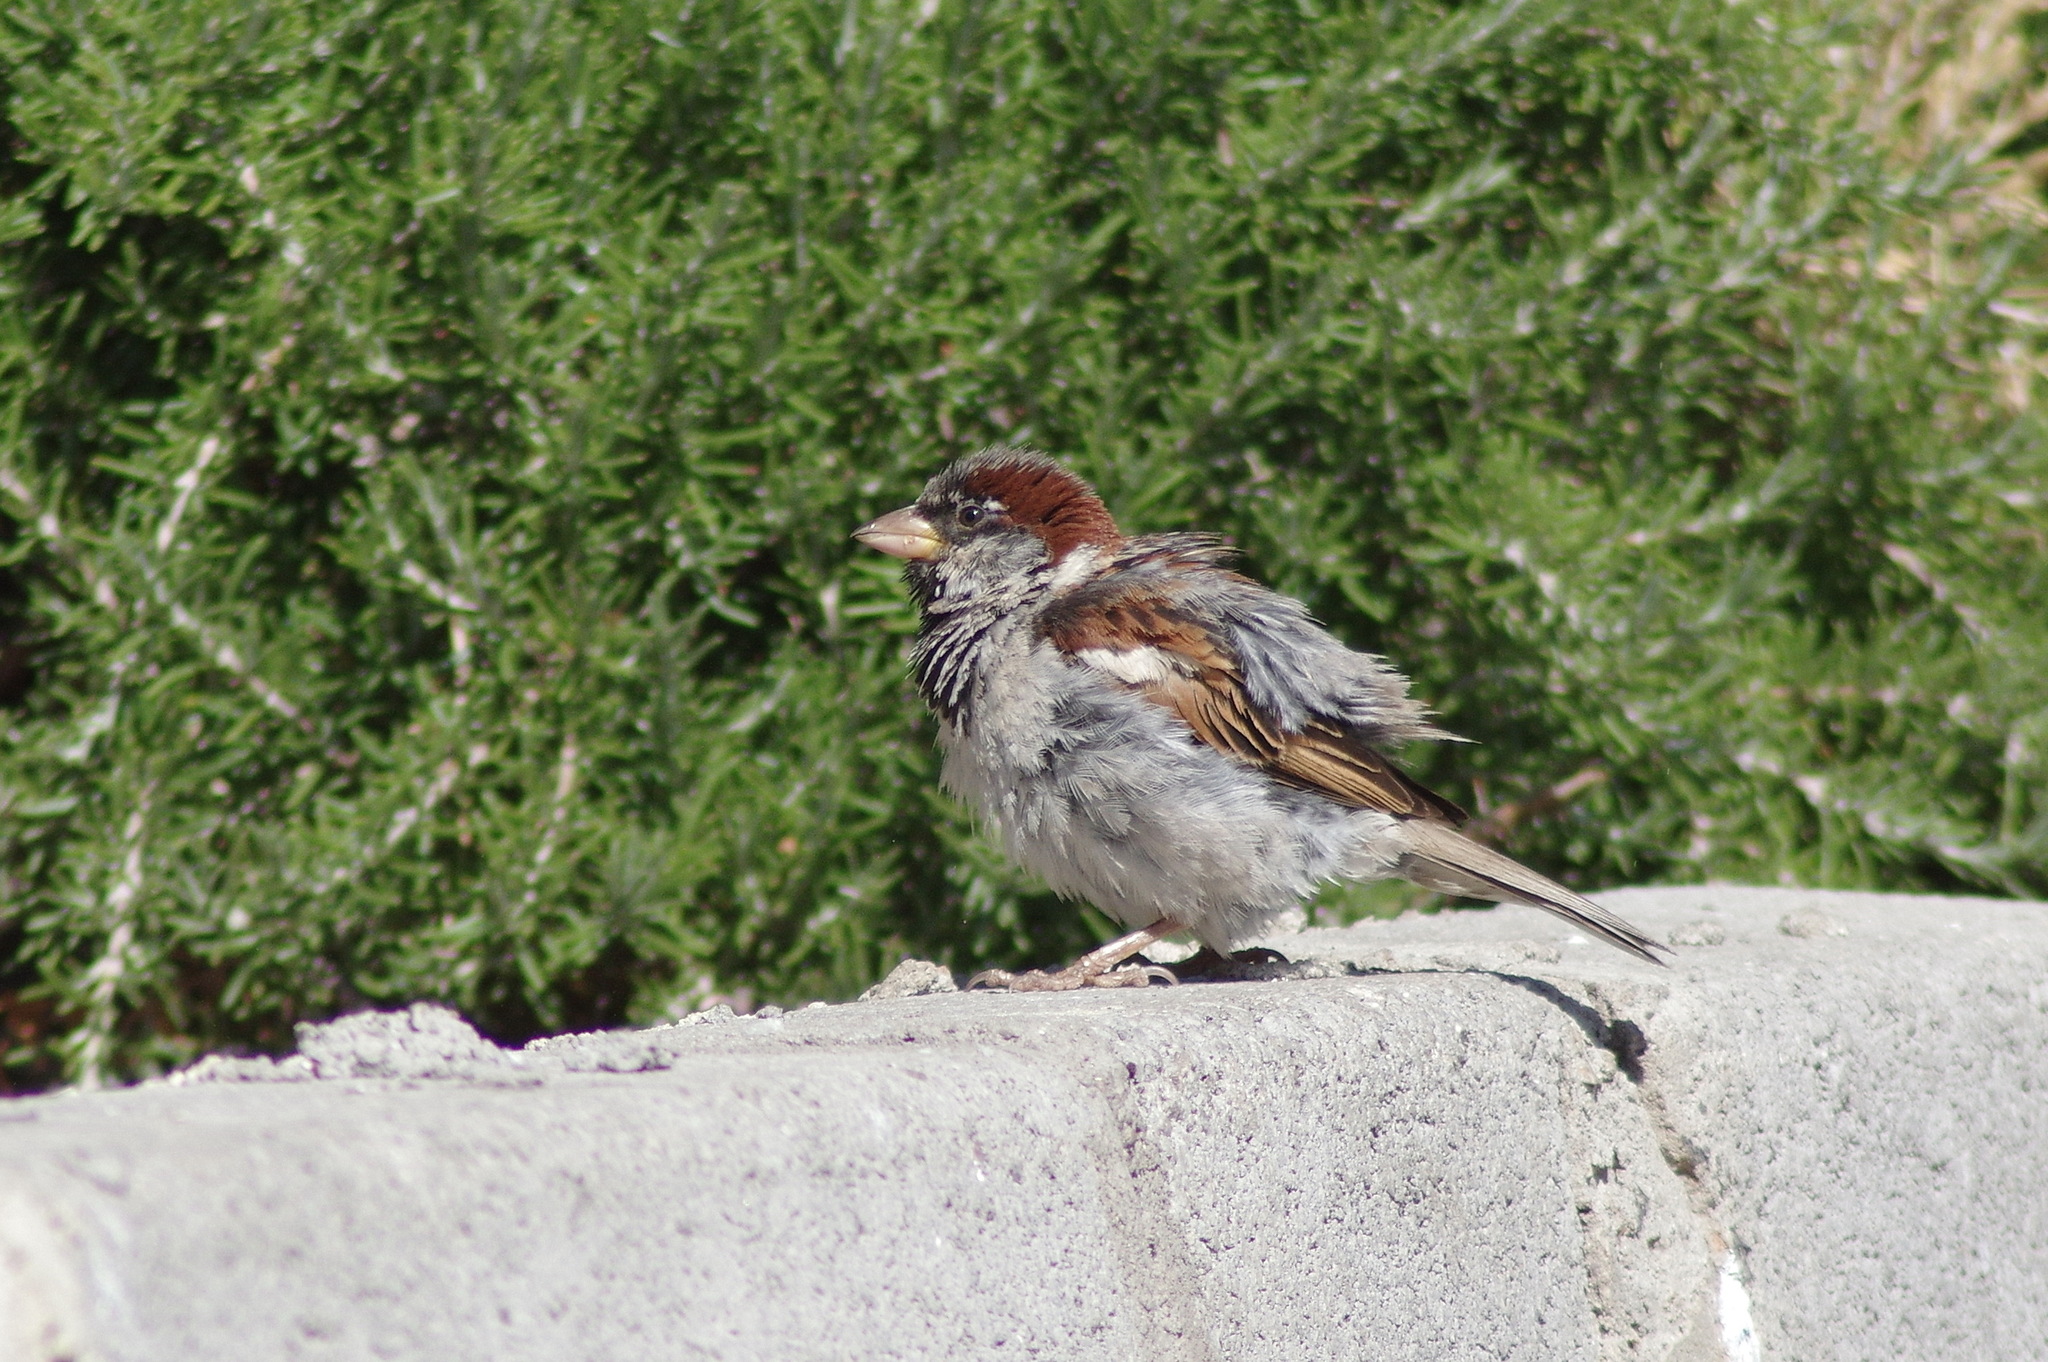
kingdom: Animalia
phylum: Chordata
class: Aves
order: Passeriformes
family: Passeridae
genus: Passer
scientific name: Passer domesticus
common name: House sparrow
